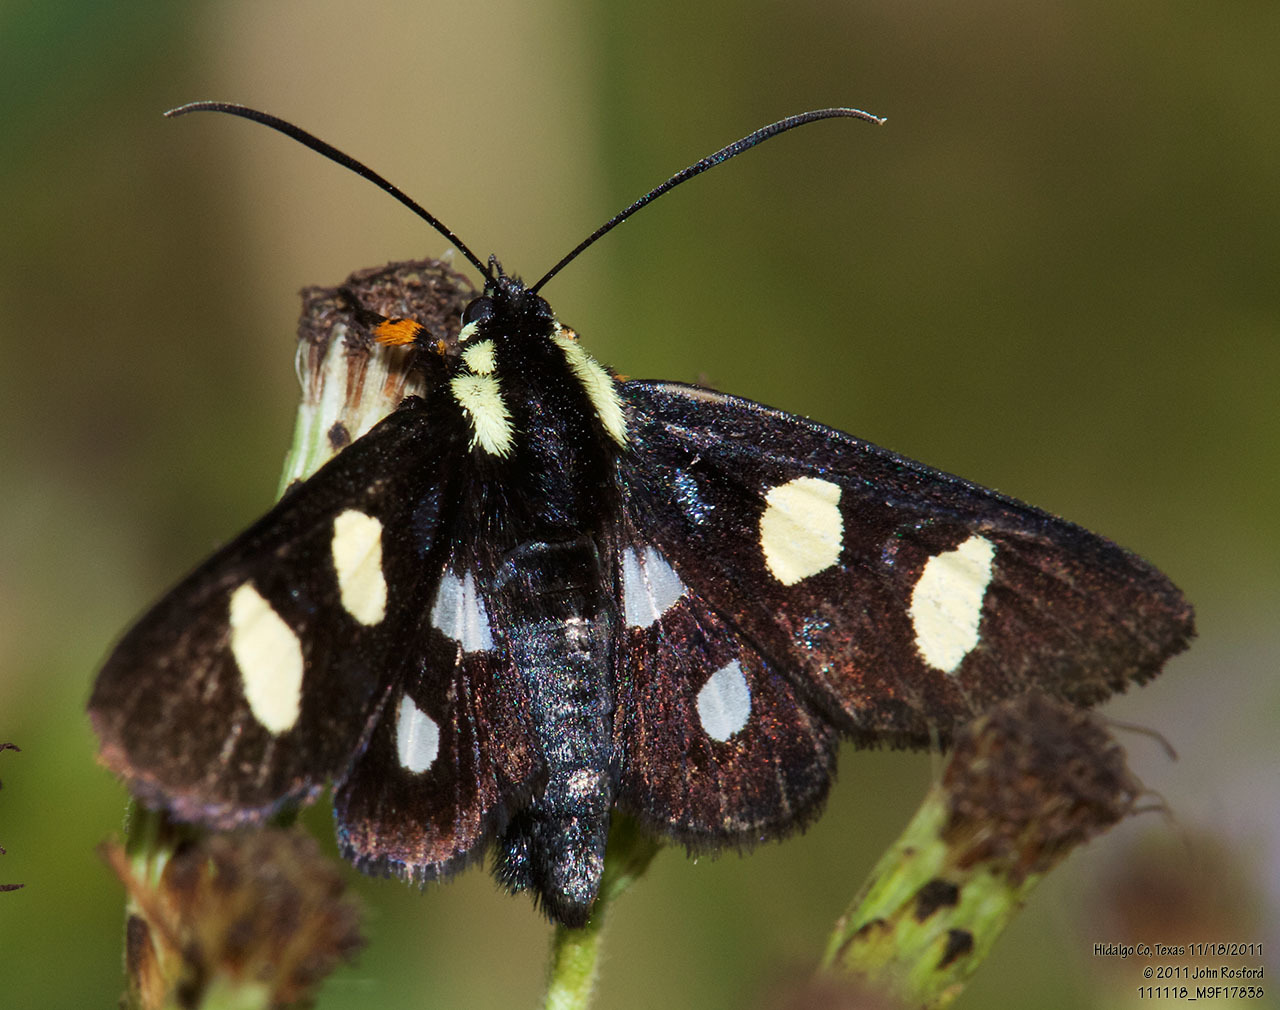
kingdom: Animalia
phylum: Arthropoda
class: Insecta
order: Lepidoptera
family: Noctuidae
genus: Alypia
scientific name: Alypia disparata
